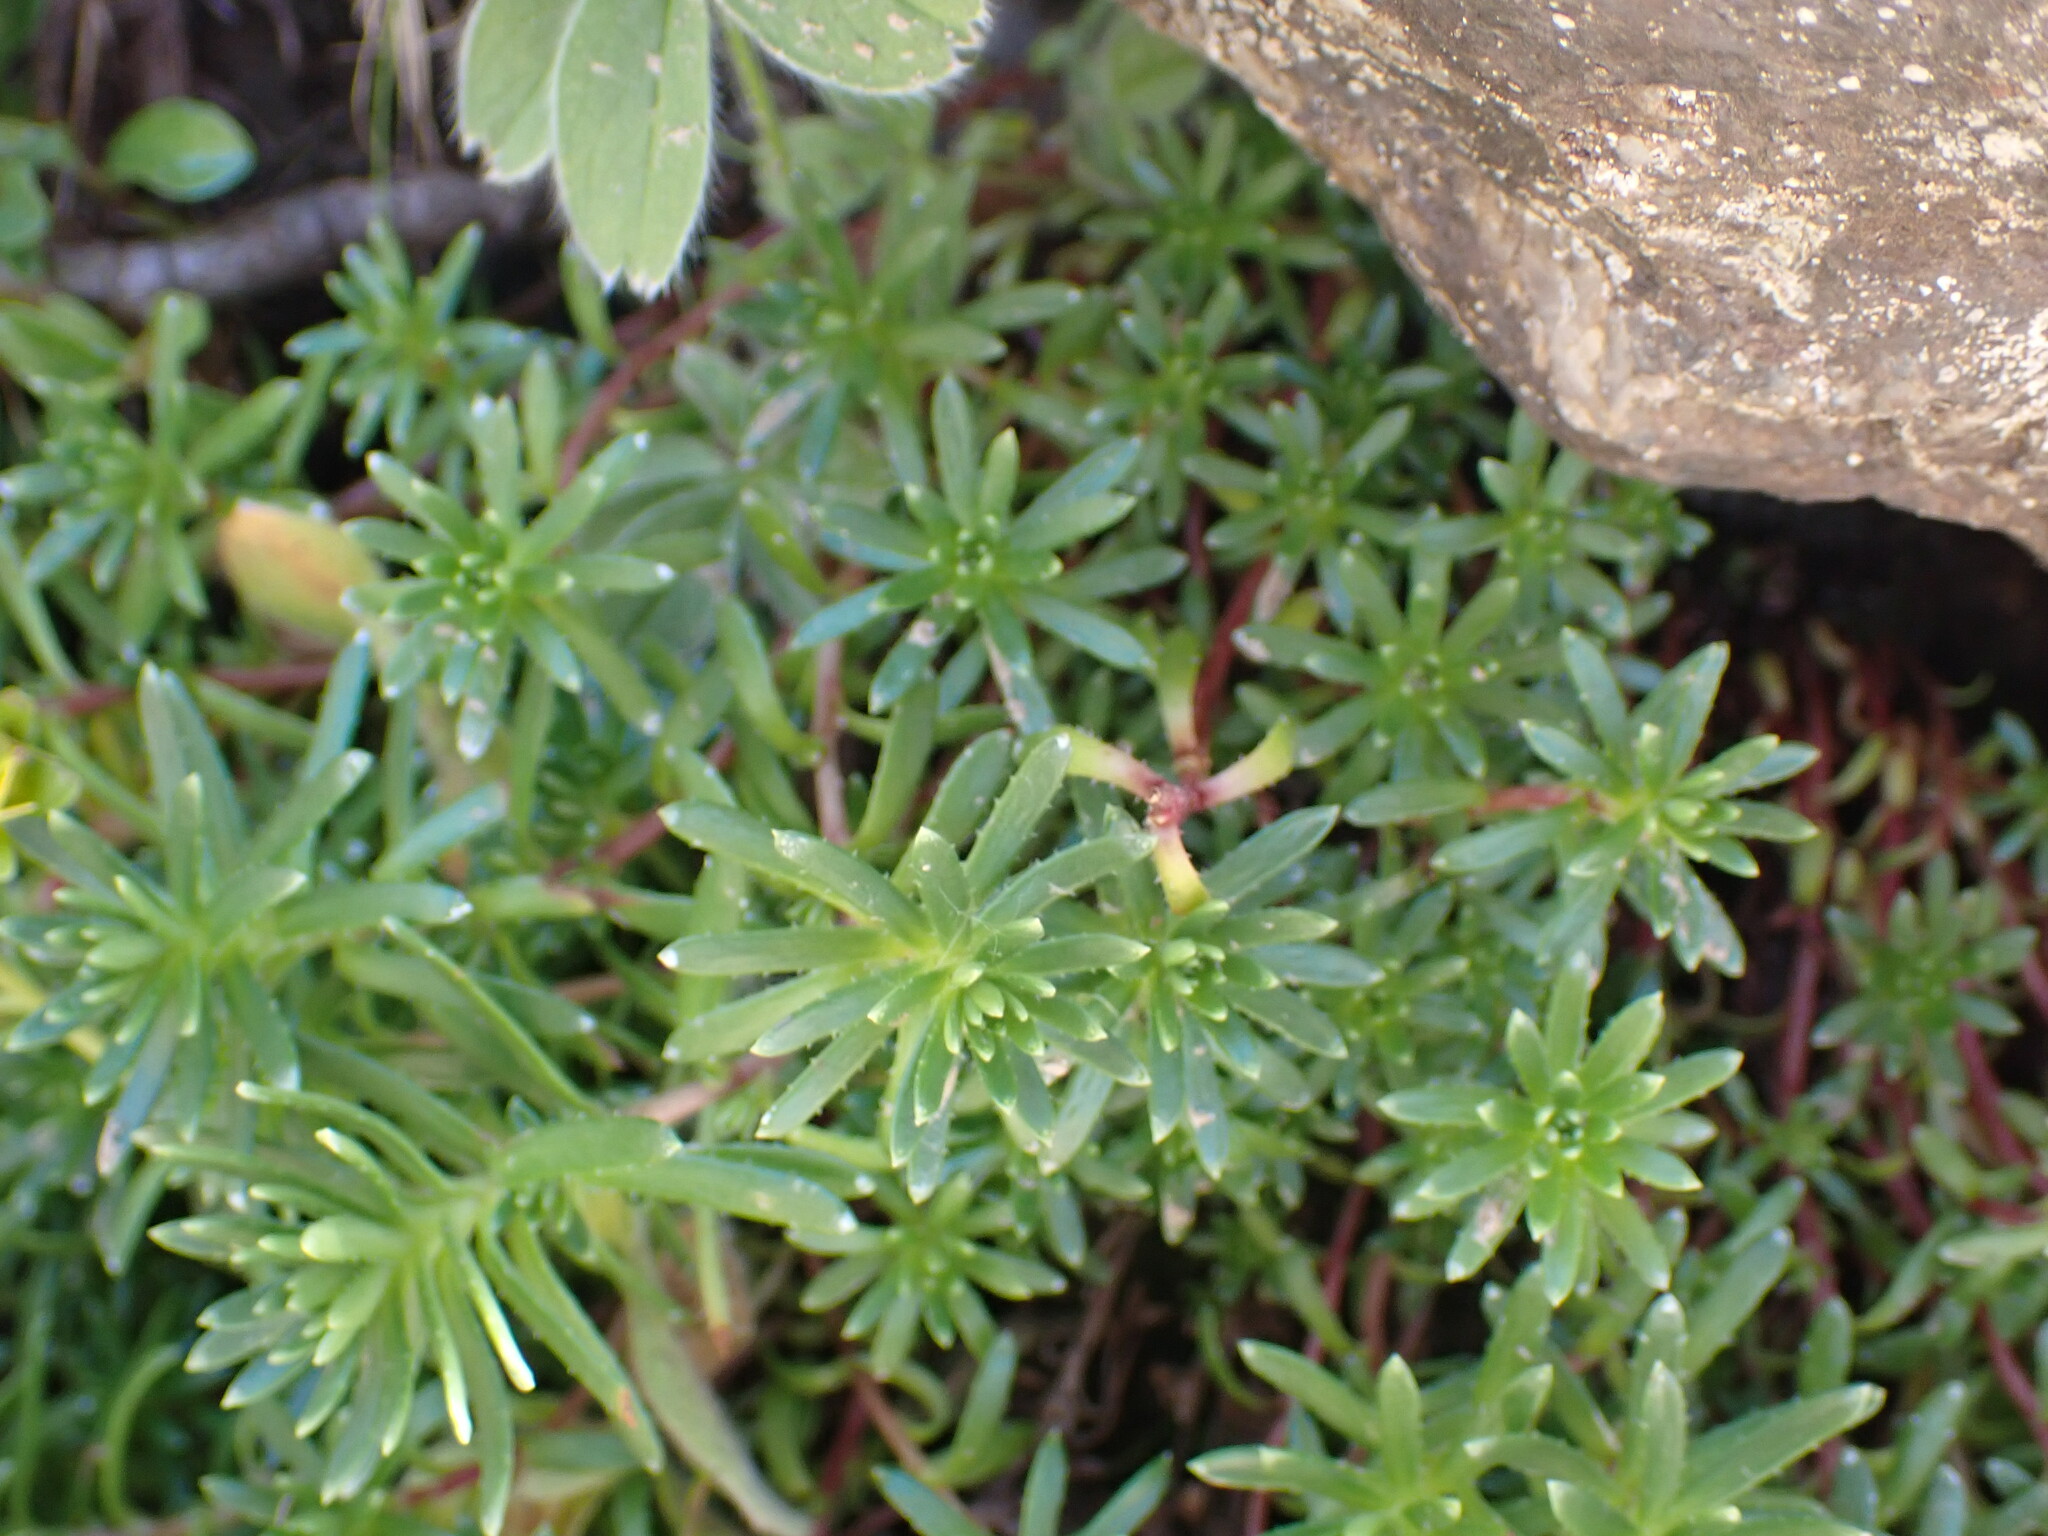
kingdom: Plantae
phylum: Tracheophyta
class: Magnoliopsida
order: Saxifragales
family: Saxifragaceae
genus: Saxifraga
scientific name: Saxifraga aizoides
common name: Yellow mountain saxifrage
